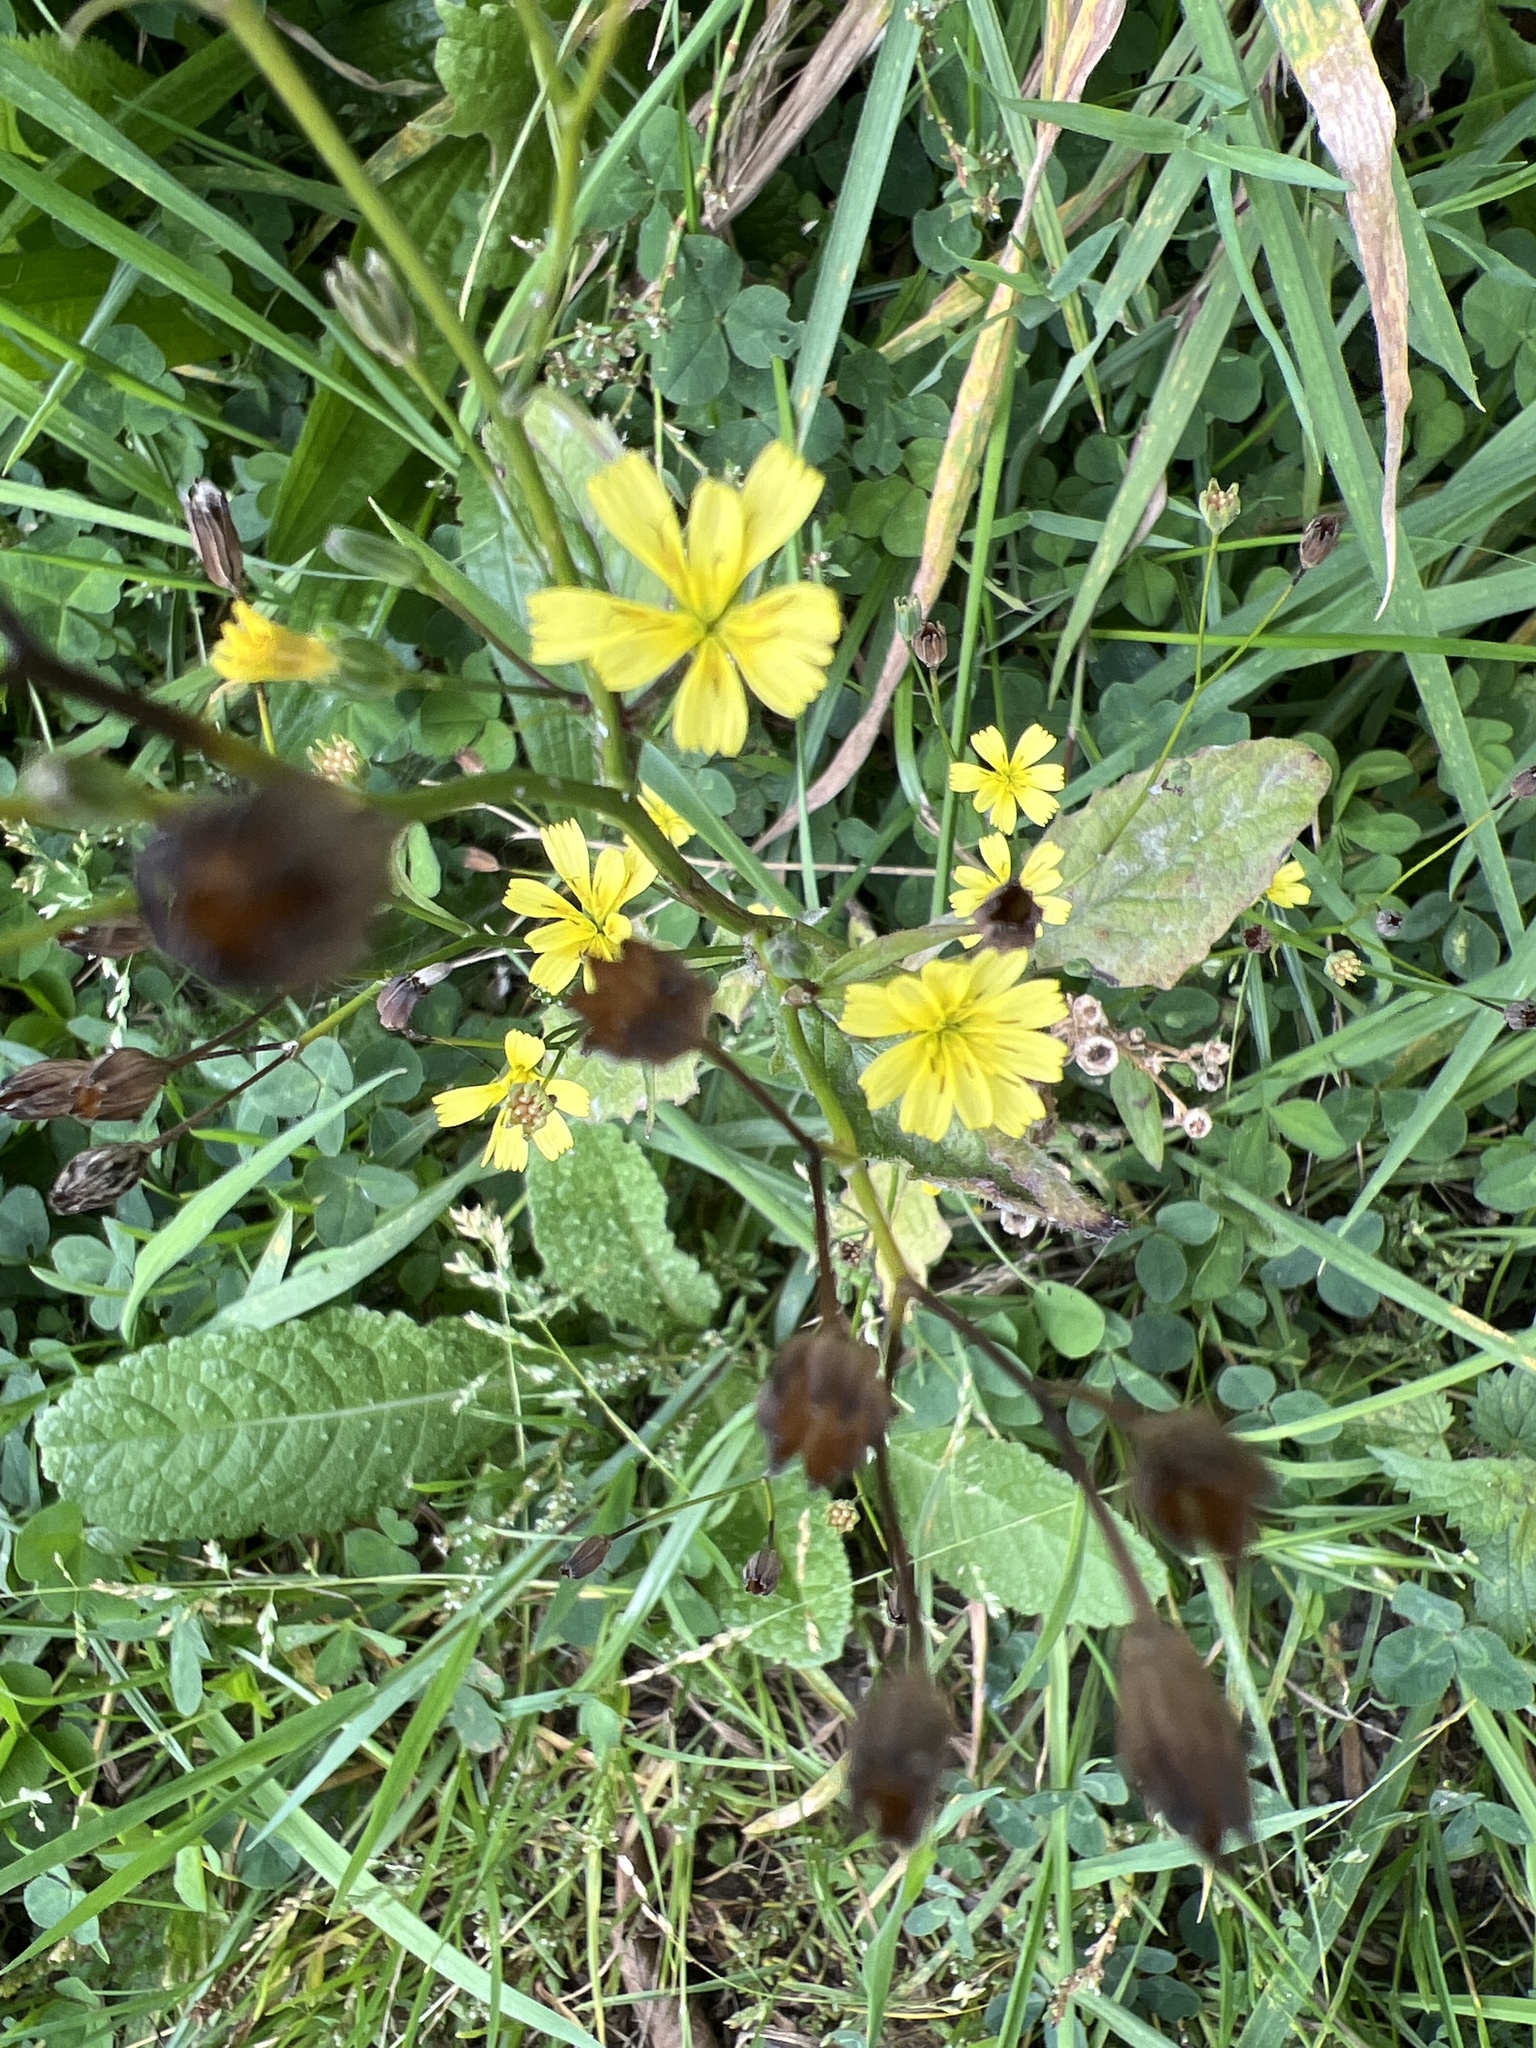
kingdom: Plantae
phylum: Tracheophyta
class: Magnoliopsida
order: Asterales
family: Asteraceae
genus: Lapsana
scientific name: Lapsana communis
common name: Nipplewort
